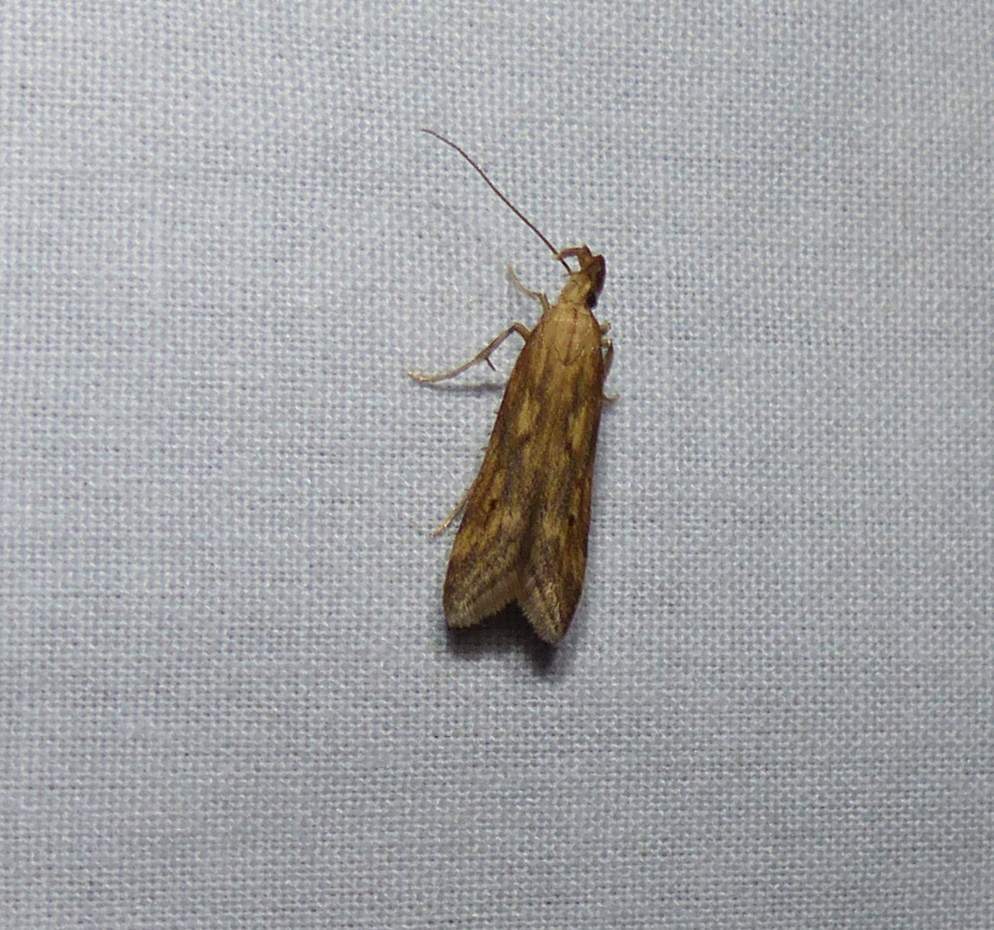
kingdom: Animalia
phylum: Arthropoda
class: Insecta
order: Lepidoptera
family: Gelechiidae
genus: Metzneria
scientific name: Metzneria lappella
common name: Burdock neb
